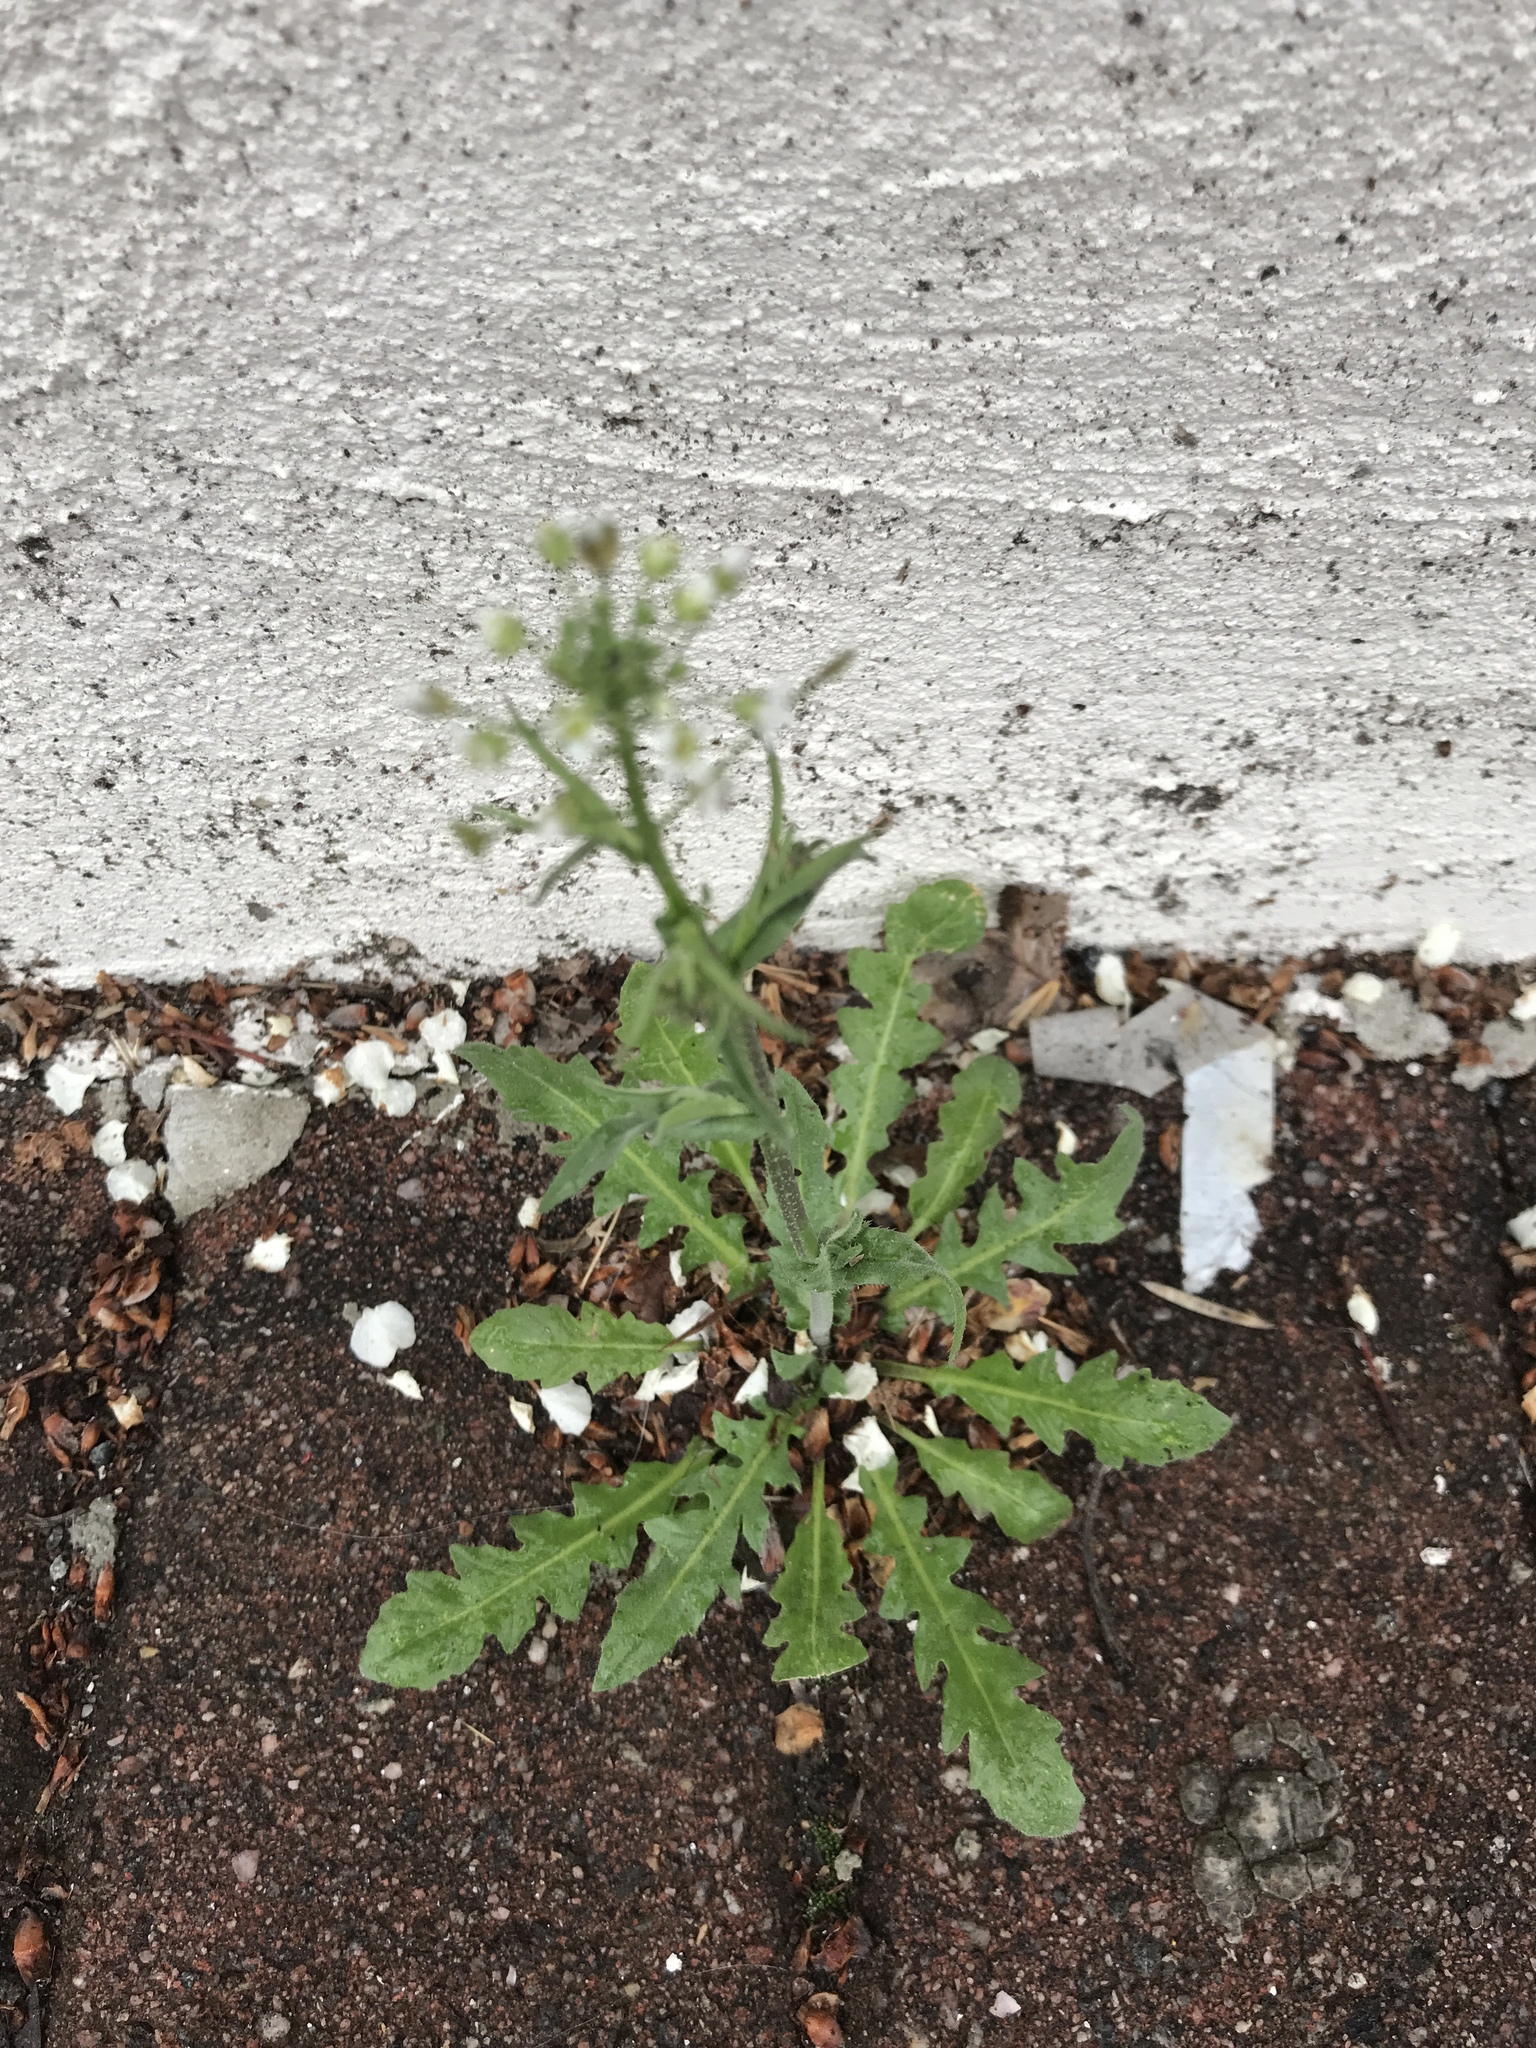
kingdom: Plantae
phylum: Tracheophyta
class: Magnoliopsida
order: Brassicales
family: Brassicaceae
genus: Capsella
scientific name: Capsella bursa-pastoris
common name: Shepherd's purse
